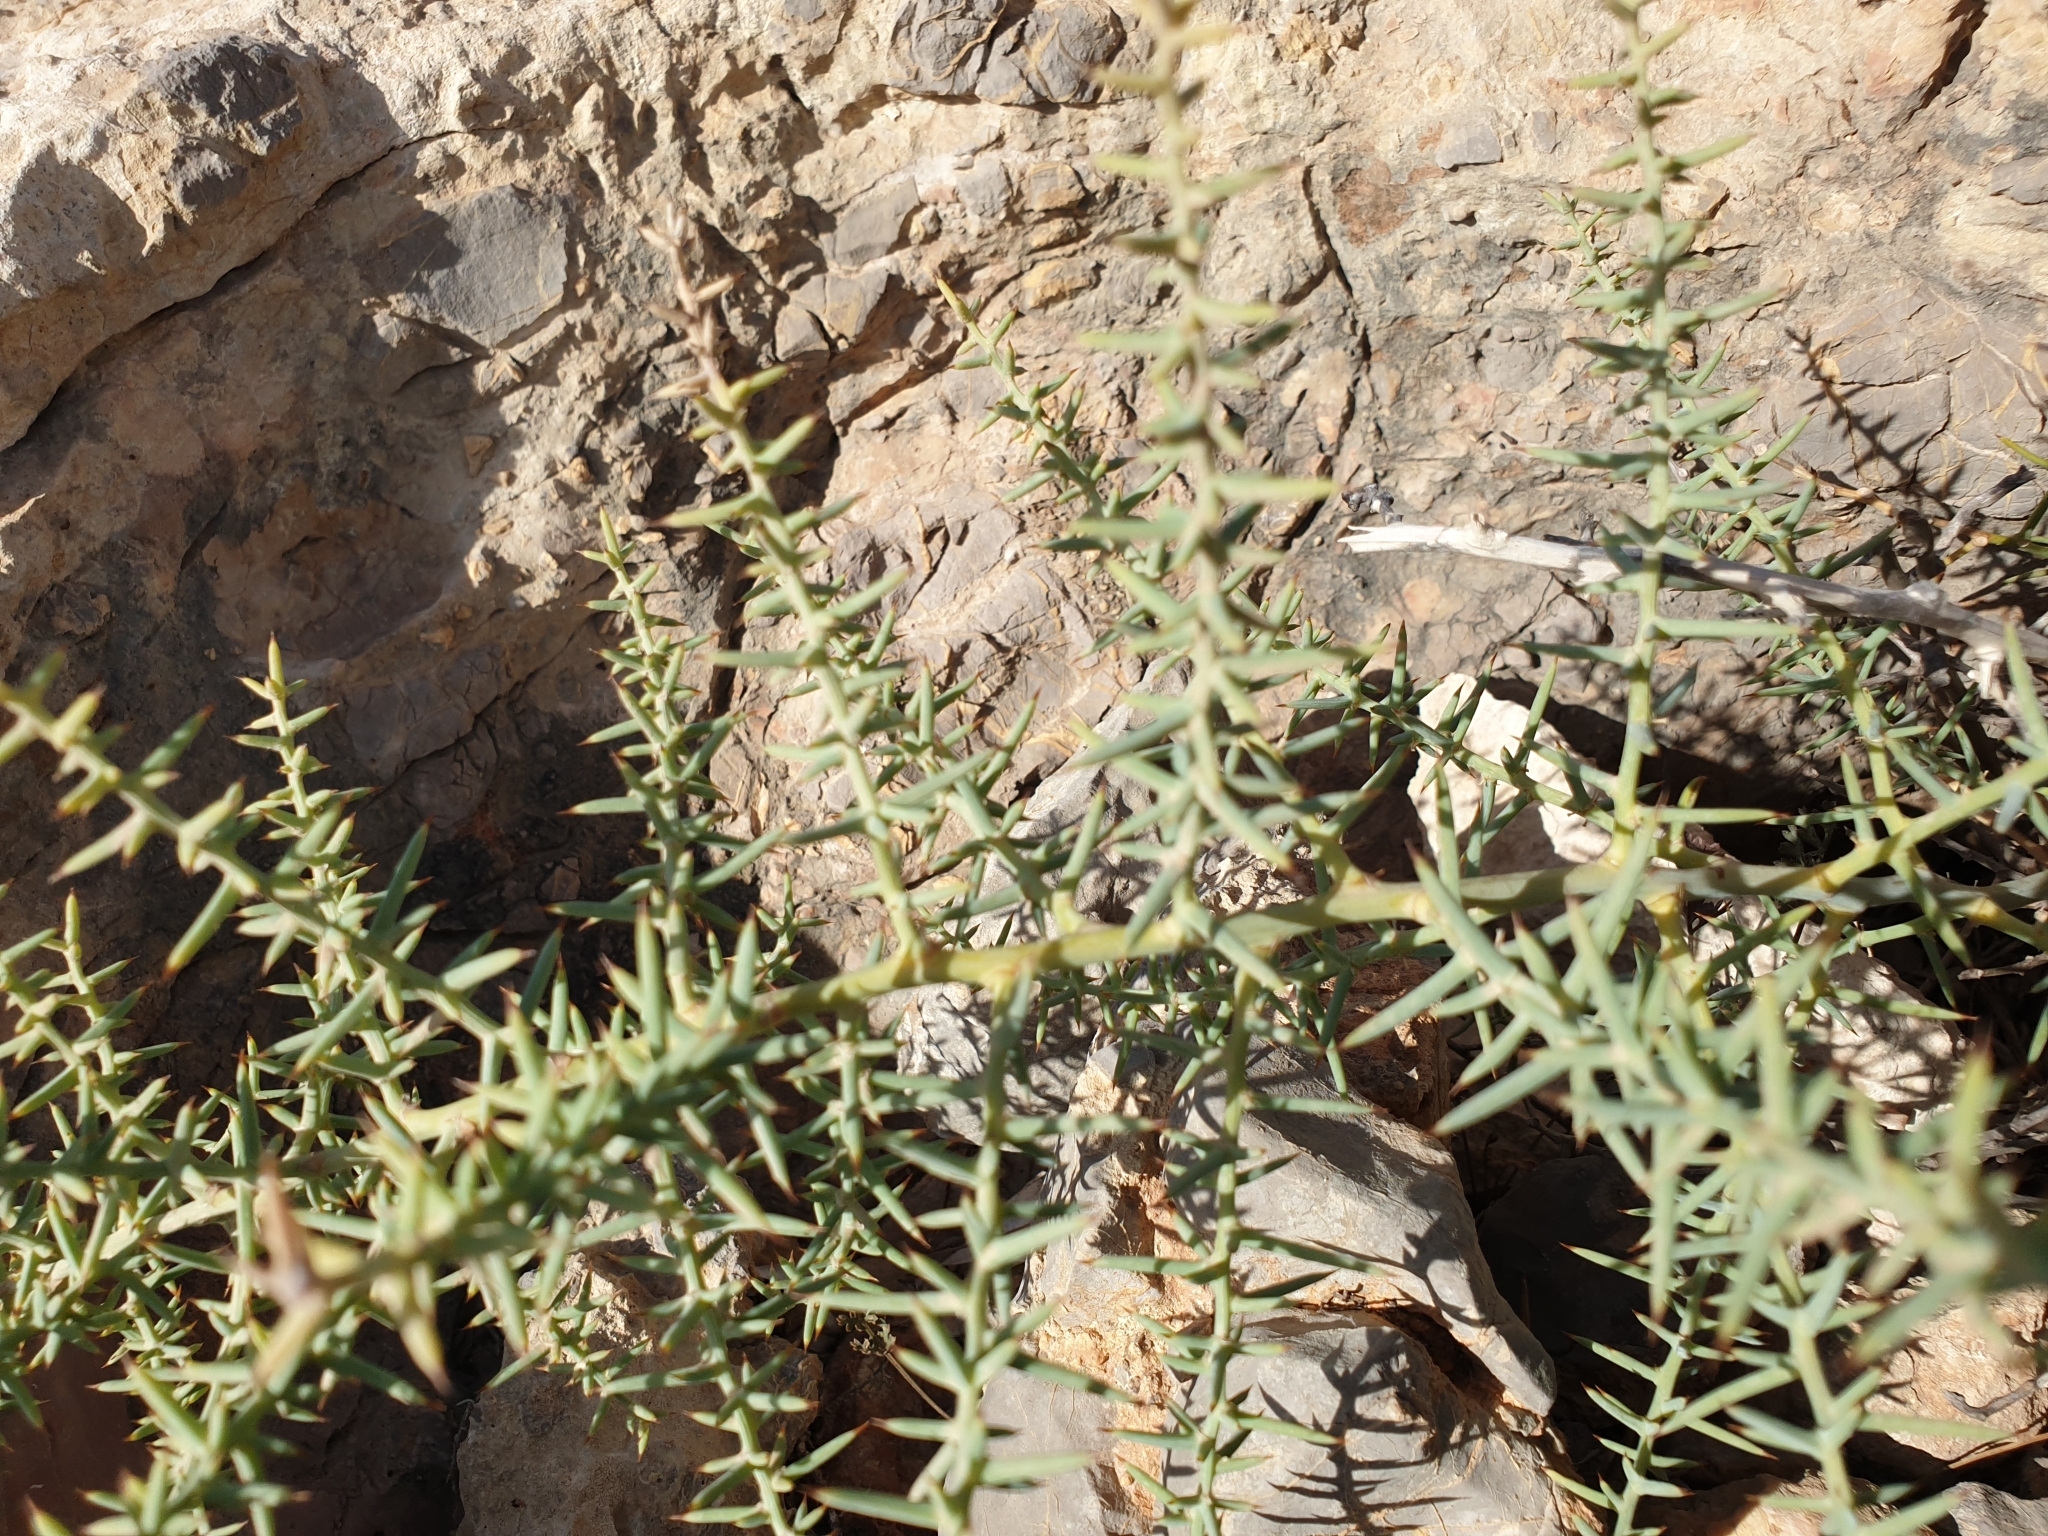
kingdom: Plantae
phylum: Tracheophyta
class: Liliopsida
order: Asparagales
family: Asparagaceae
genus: Asparagus
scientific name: Asparagus horridus
